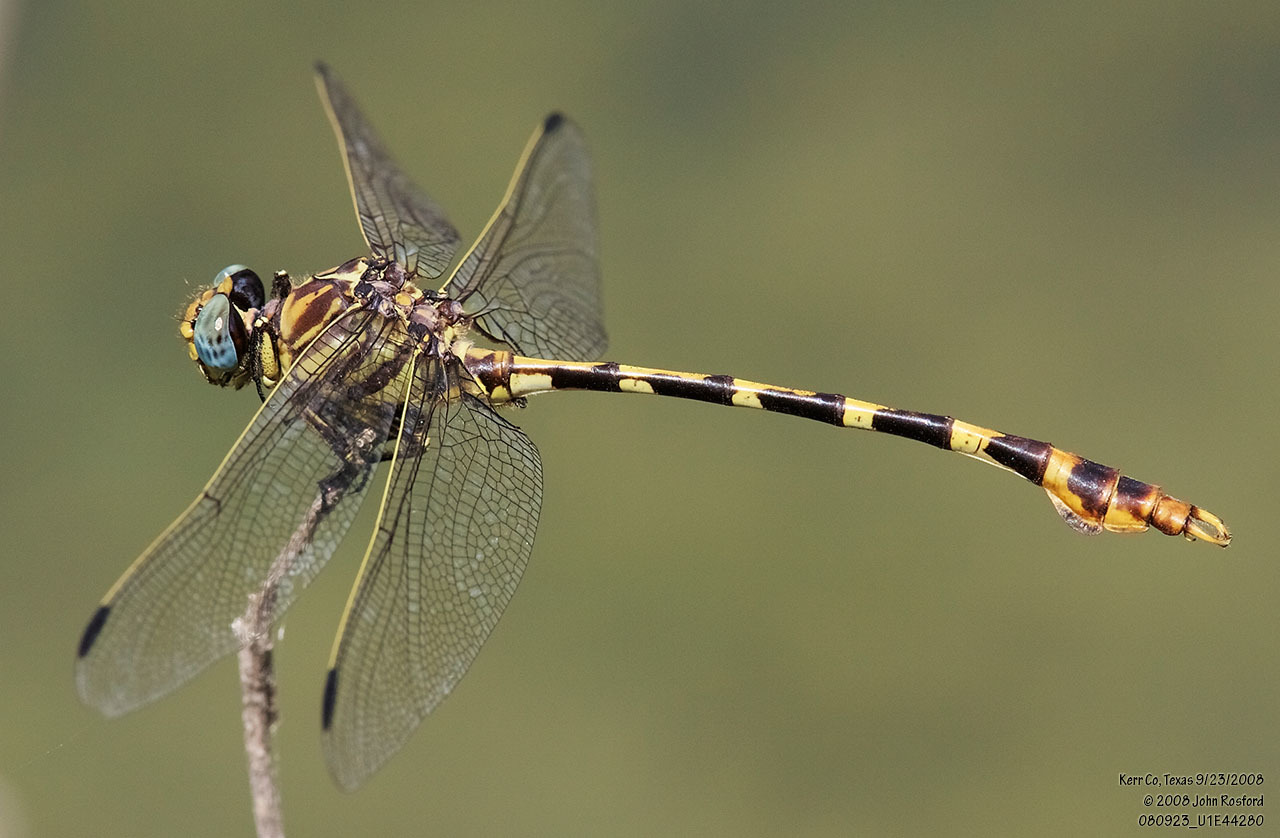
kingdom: Animalia
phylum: Arthropoda
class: Insecta
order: Odonata
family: Gomphidae
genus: Phyllogomphoides
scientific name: Phyllogomphoides stigmatus
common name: Four-striped leaftail
